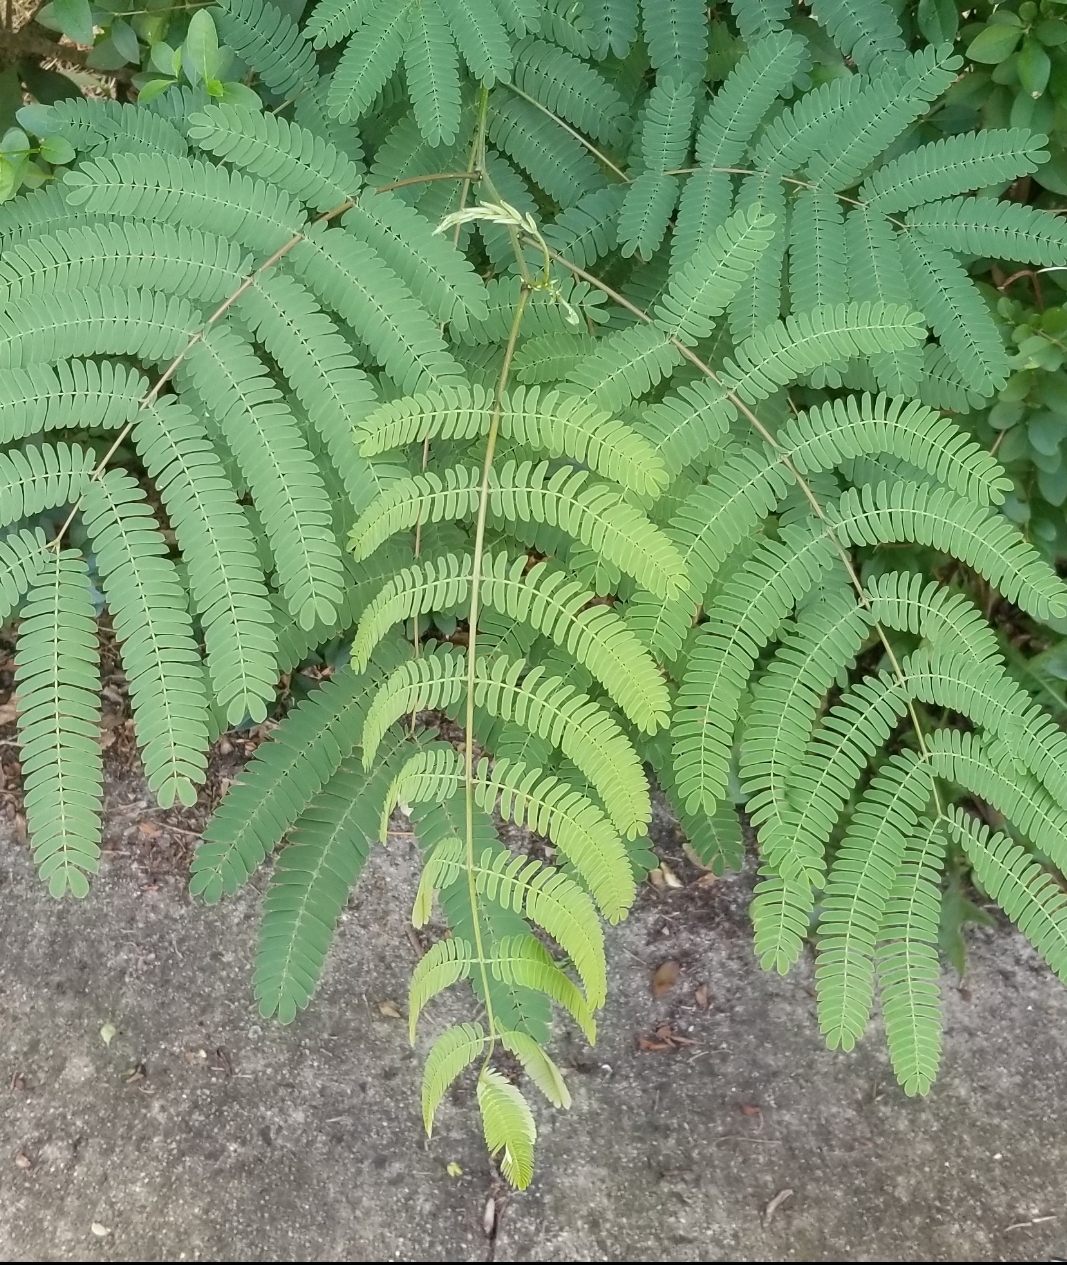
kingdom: Plantae
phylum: Tracheophyta
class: Magnoliopsida
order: Fabales
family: Fabaceae
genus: Albizia
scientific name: Albizia julibrissin
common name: Silktree
